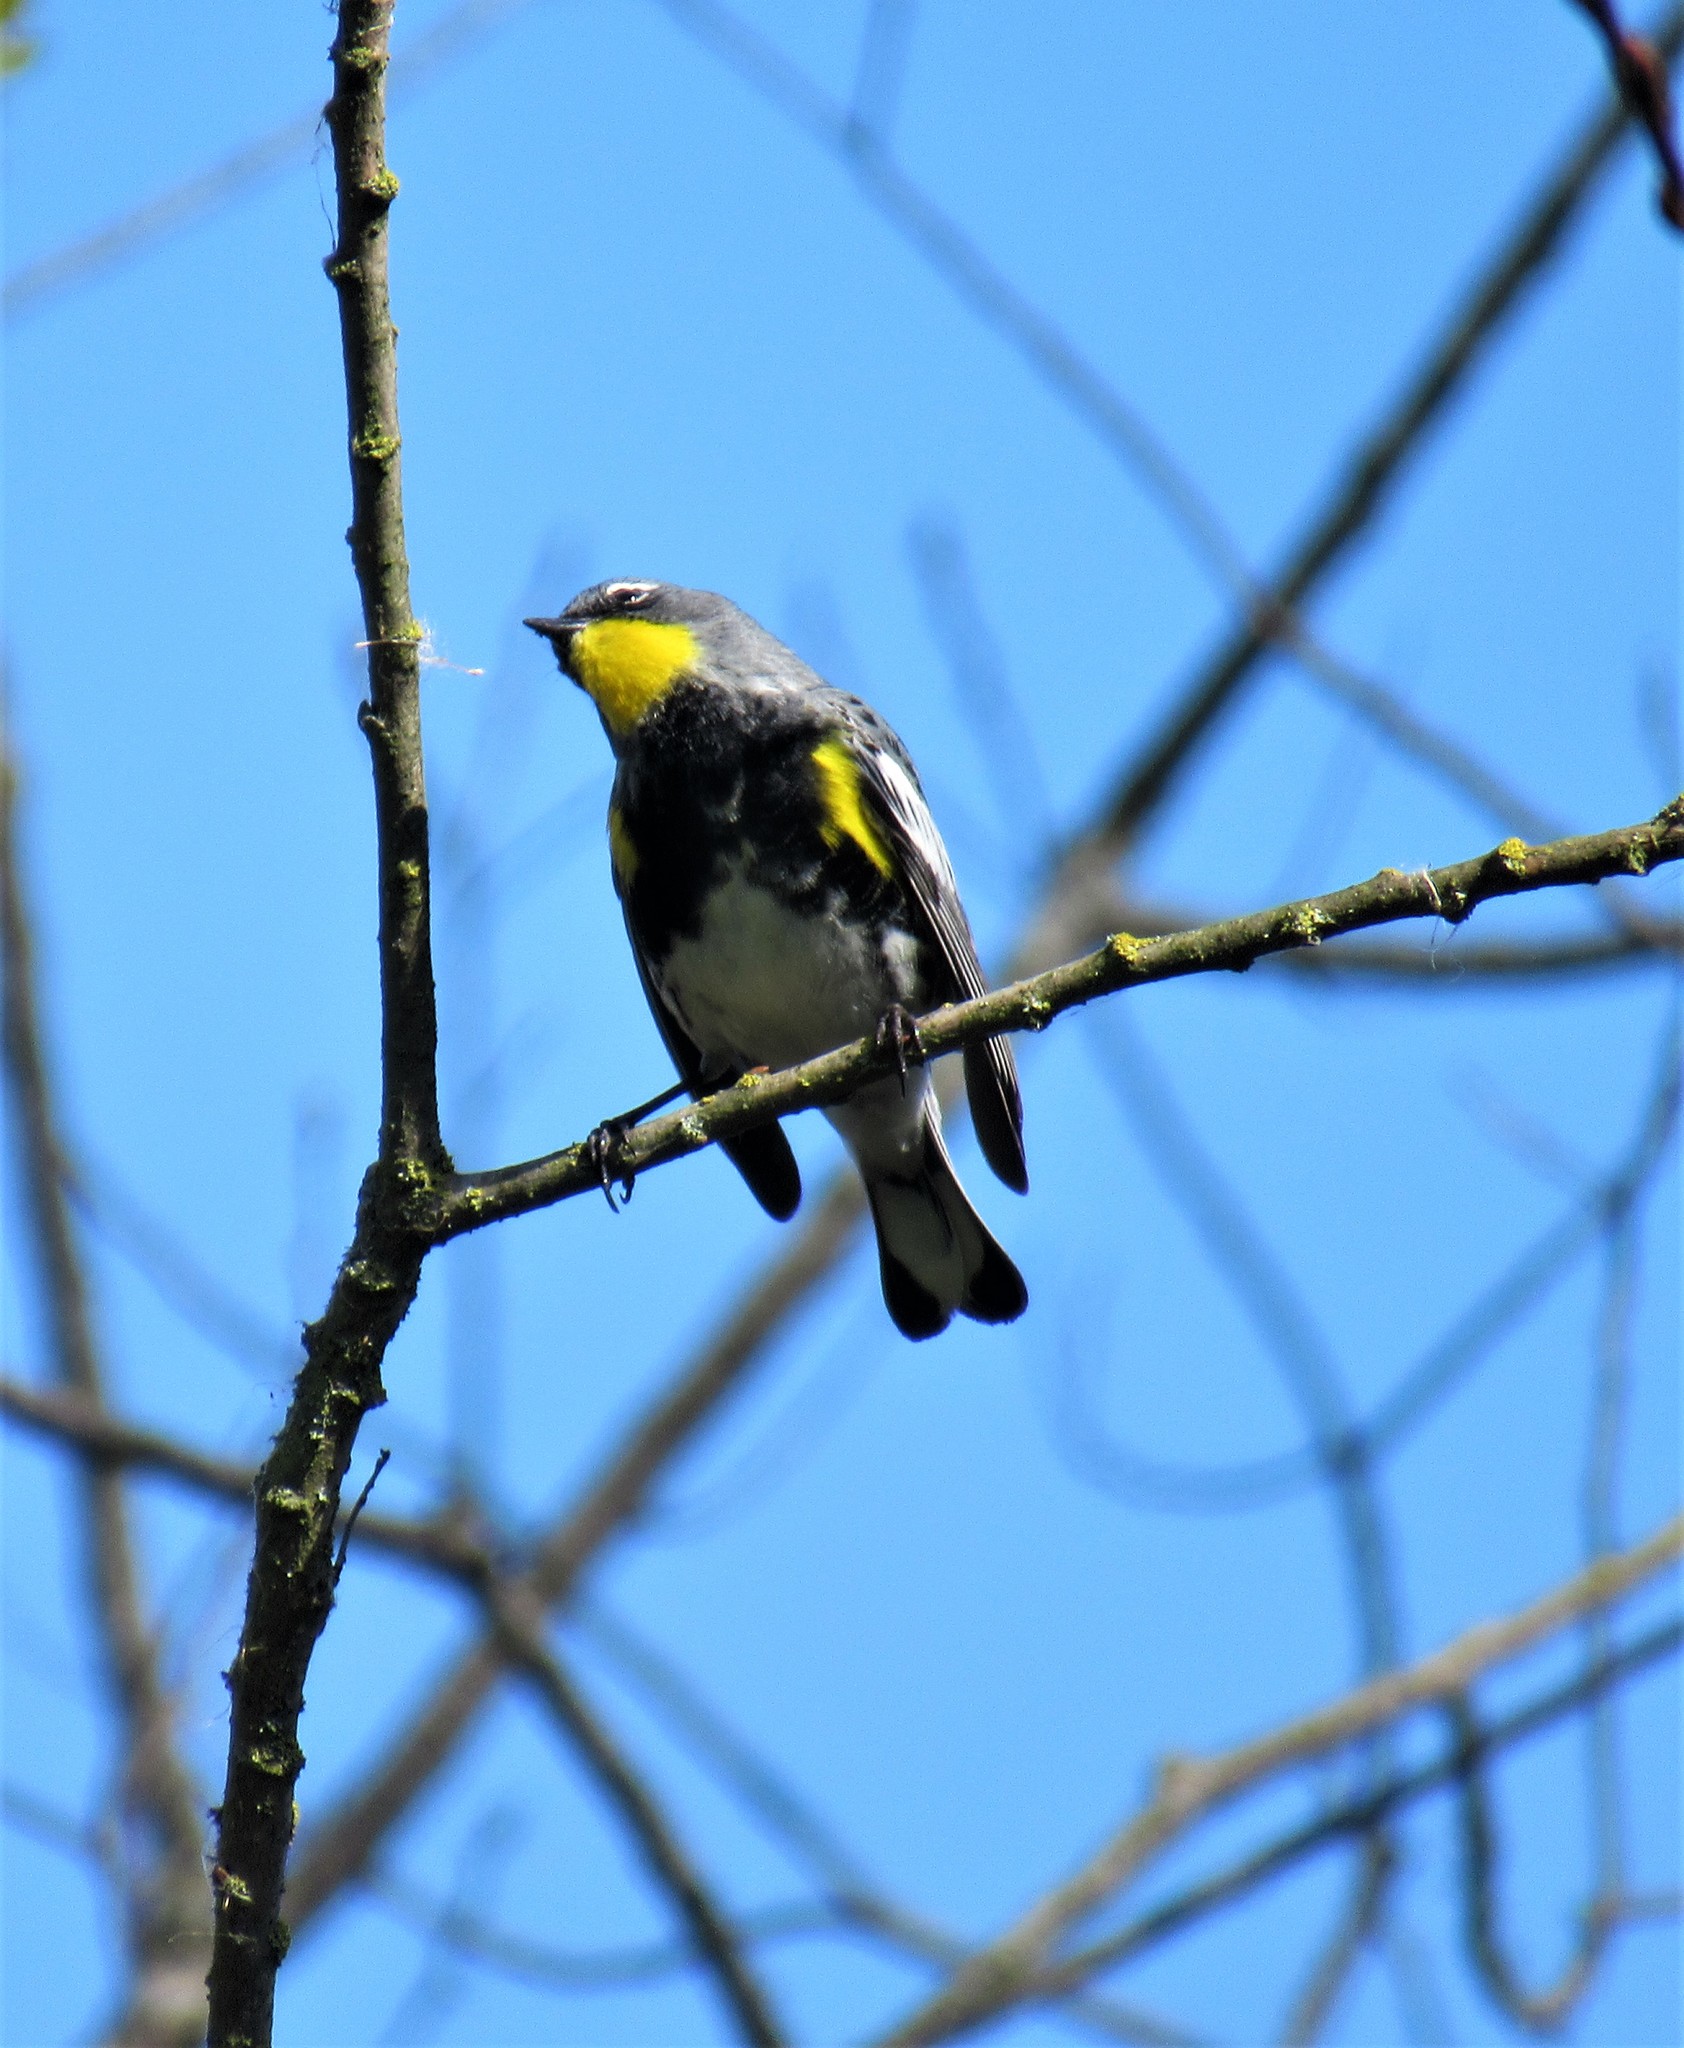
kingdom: Animalia
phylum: Chordata
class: Aves
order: Passeriformes
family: Parulidae
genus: Setophaga
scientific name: Setophaga auduboni
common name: Audubon's warbler
